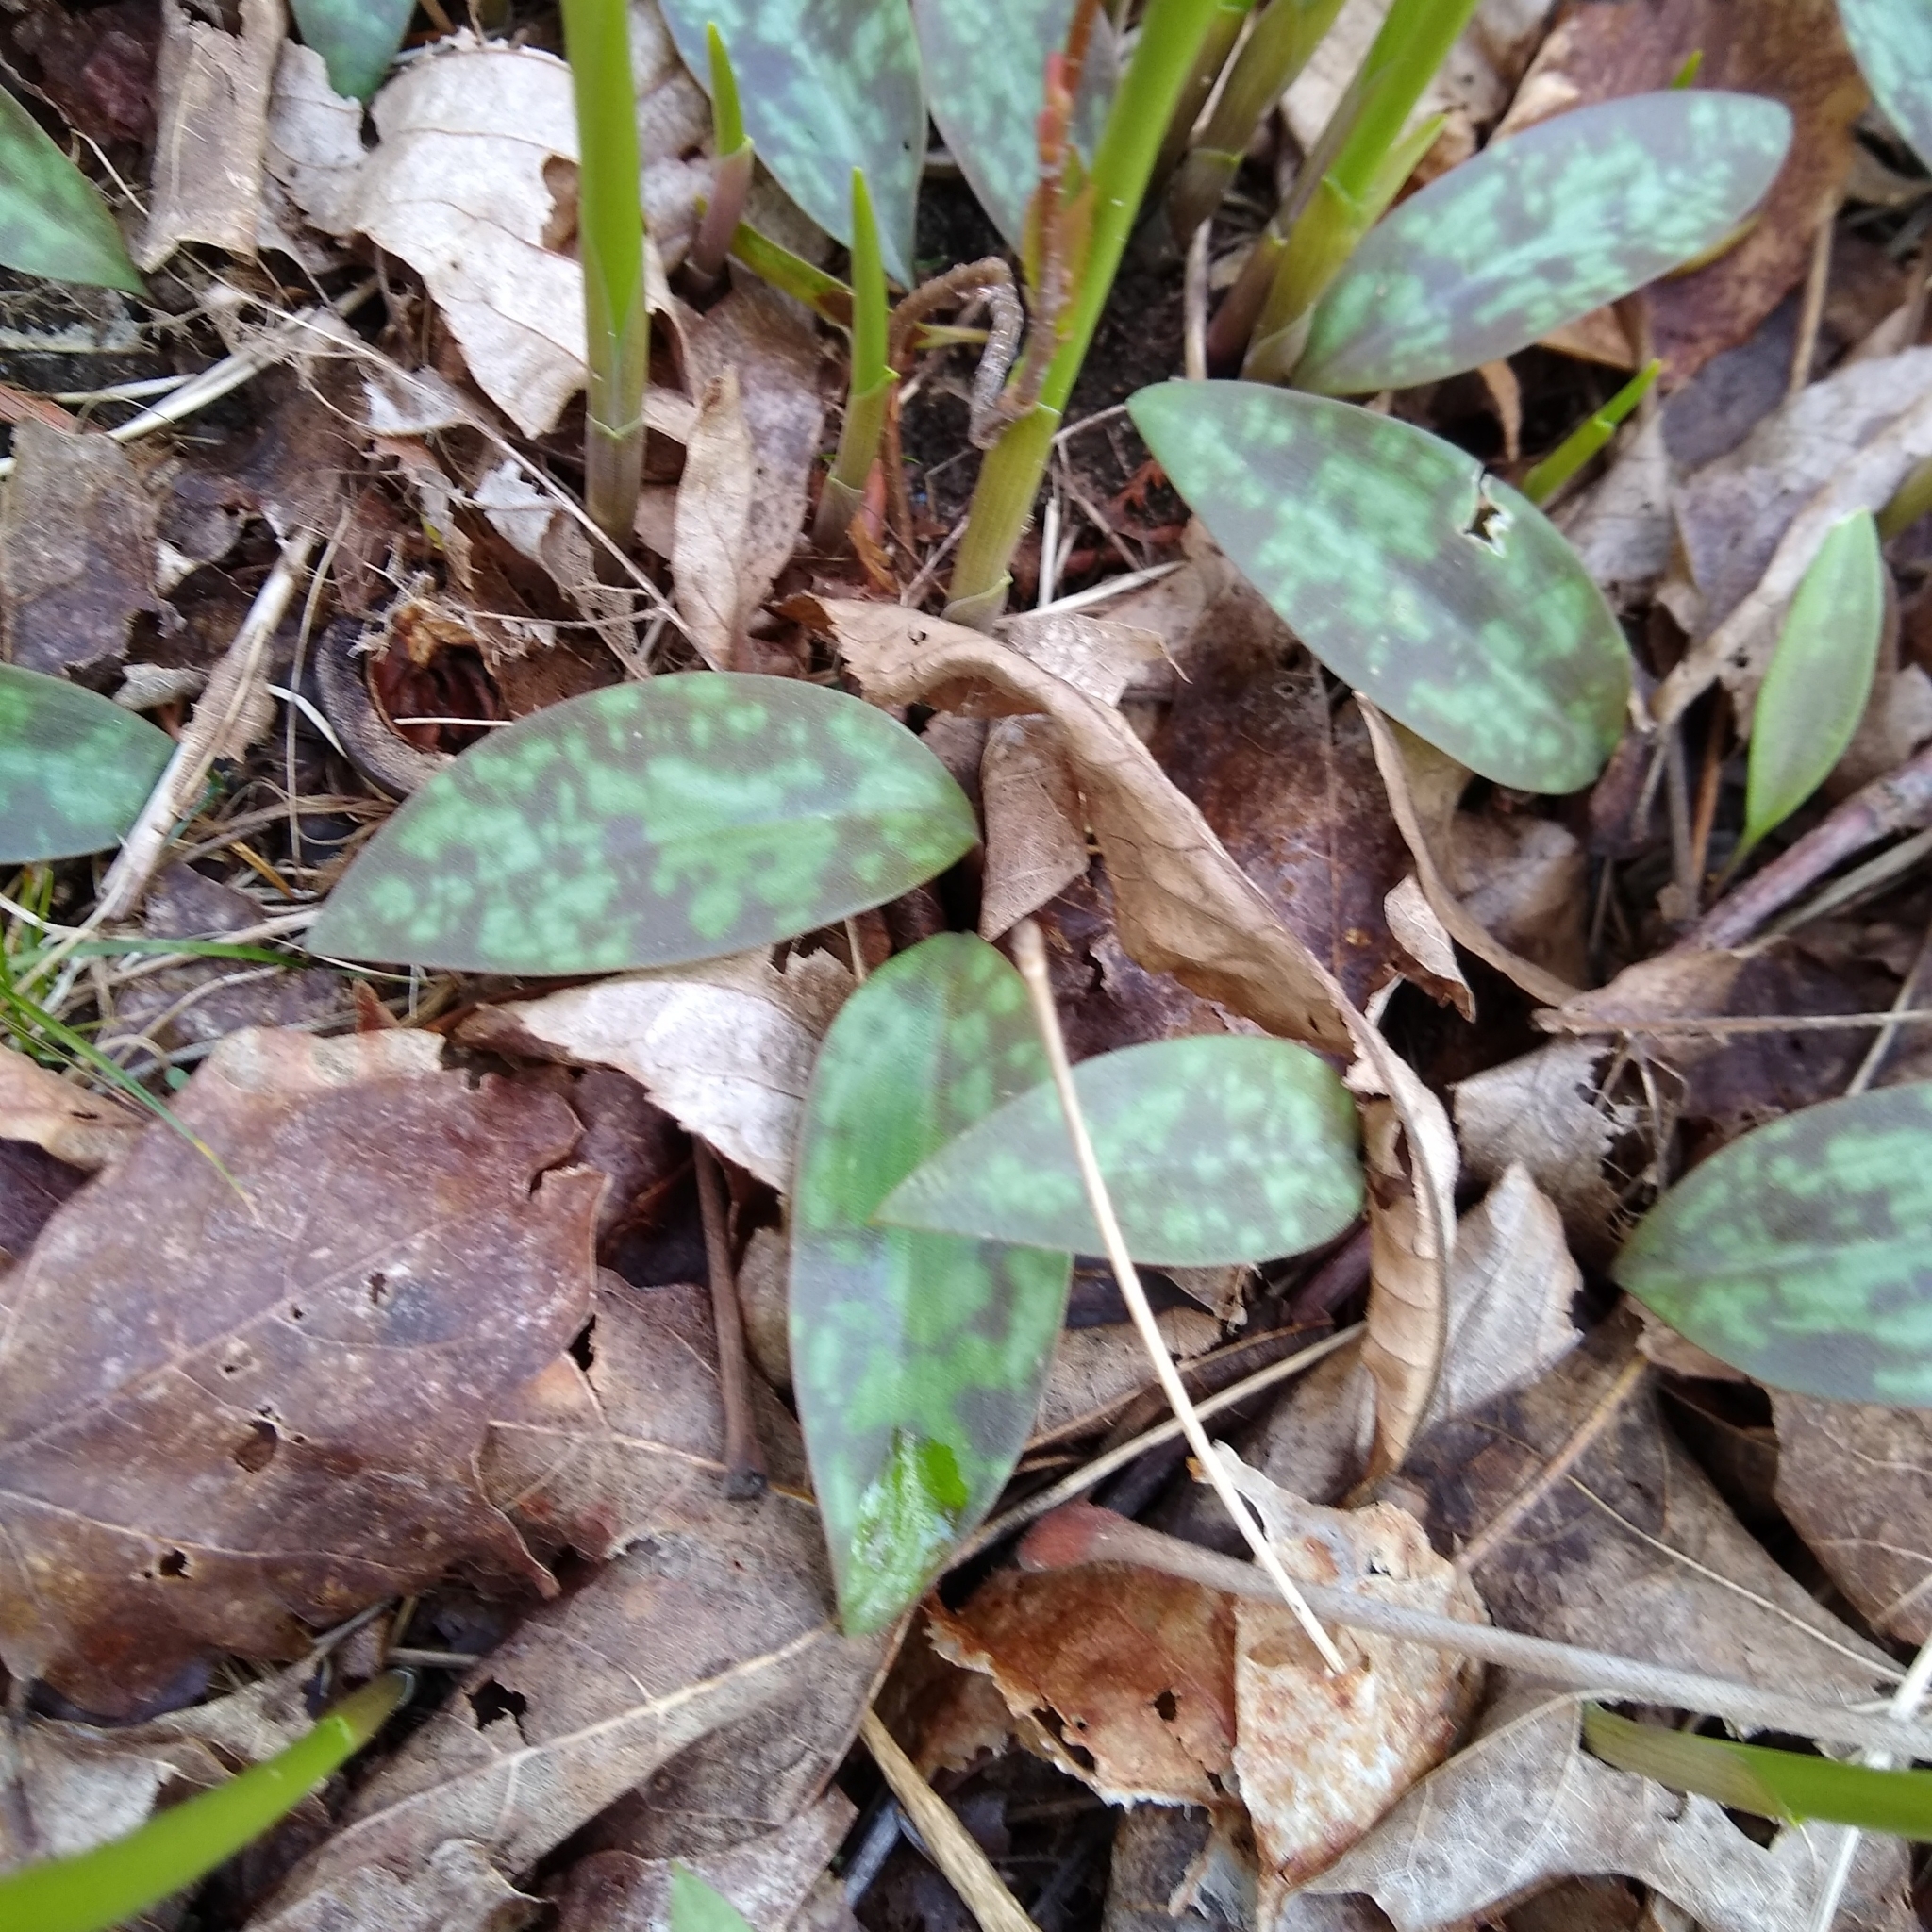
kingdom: Plantae
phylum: Tracheophyta
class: Liliopsida
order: Liliales
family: Liliaceae
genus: Erythronium
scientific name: Erythronium americanum
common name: Yellow adder's-tongue
